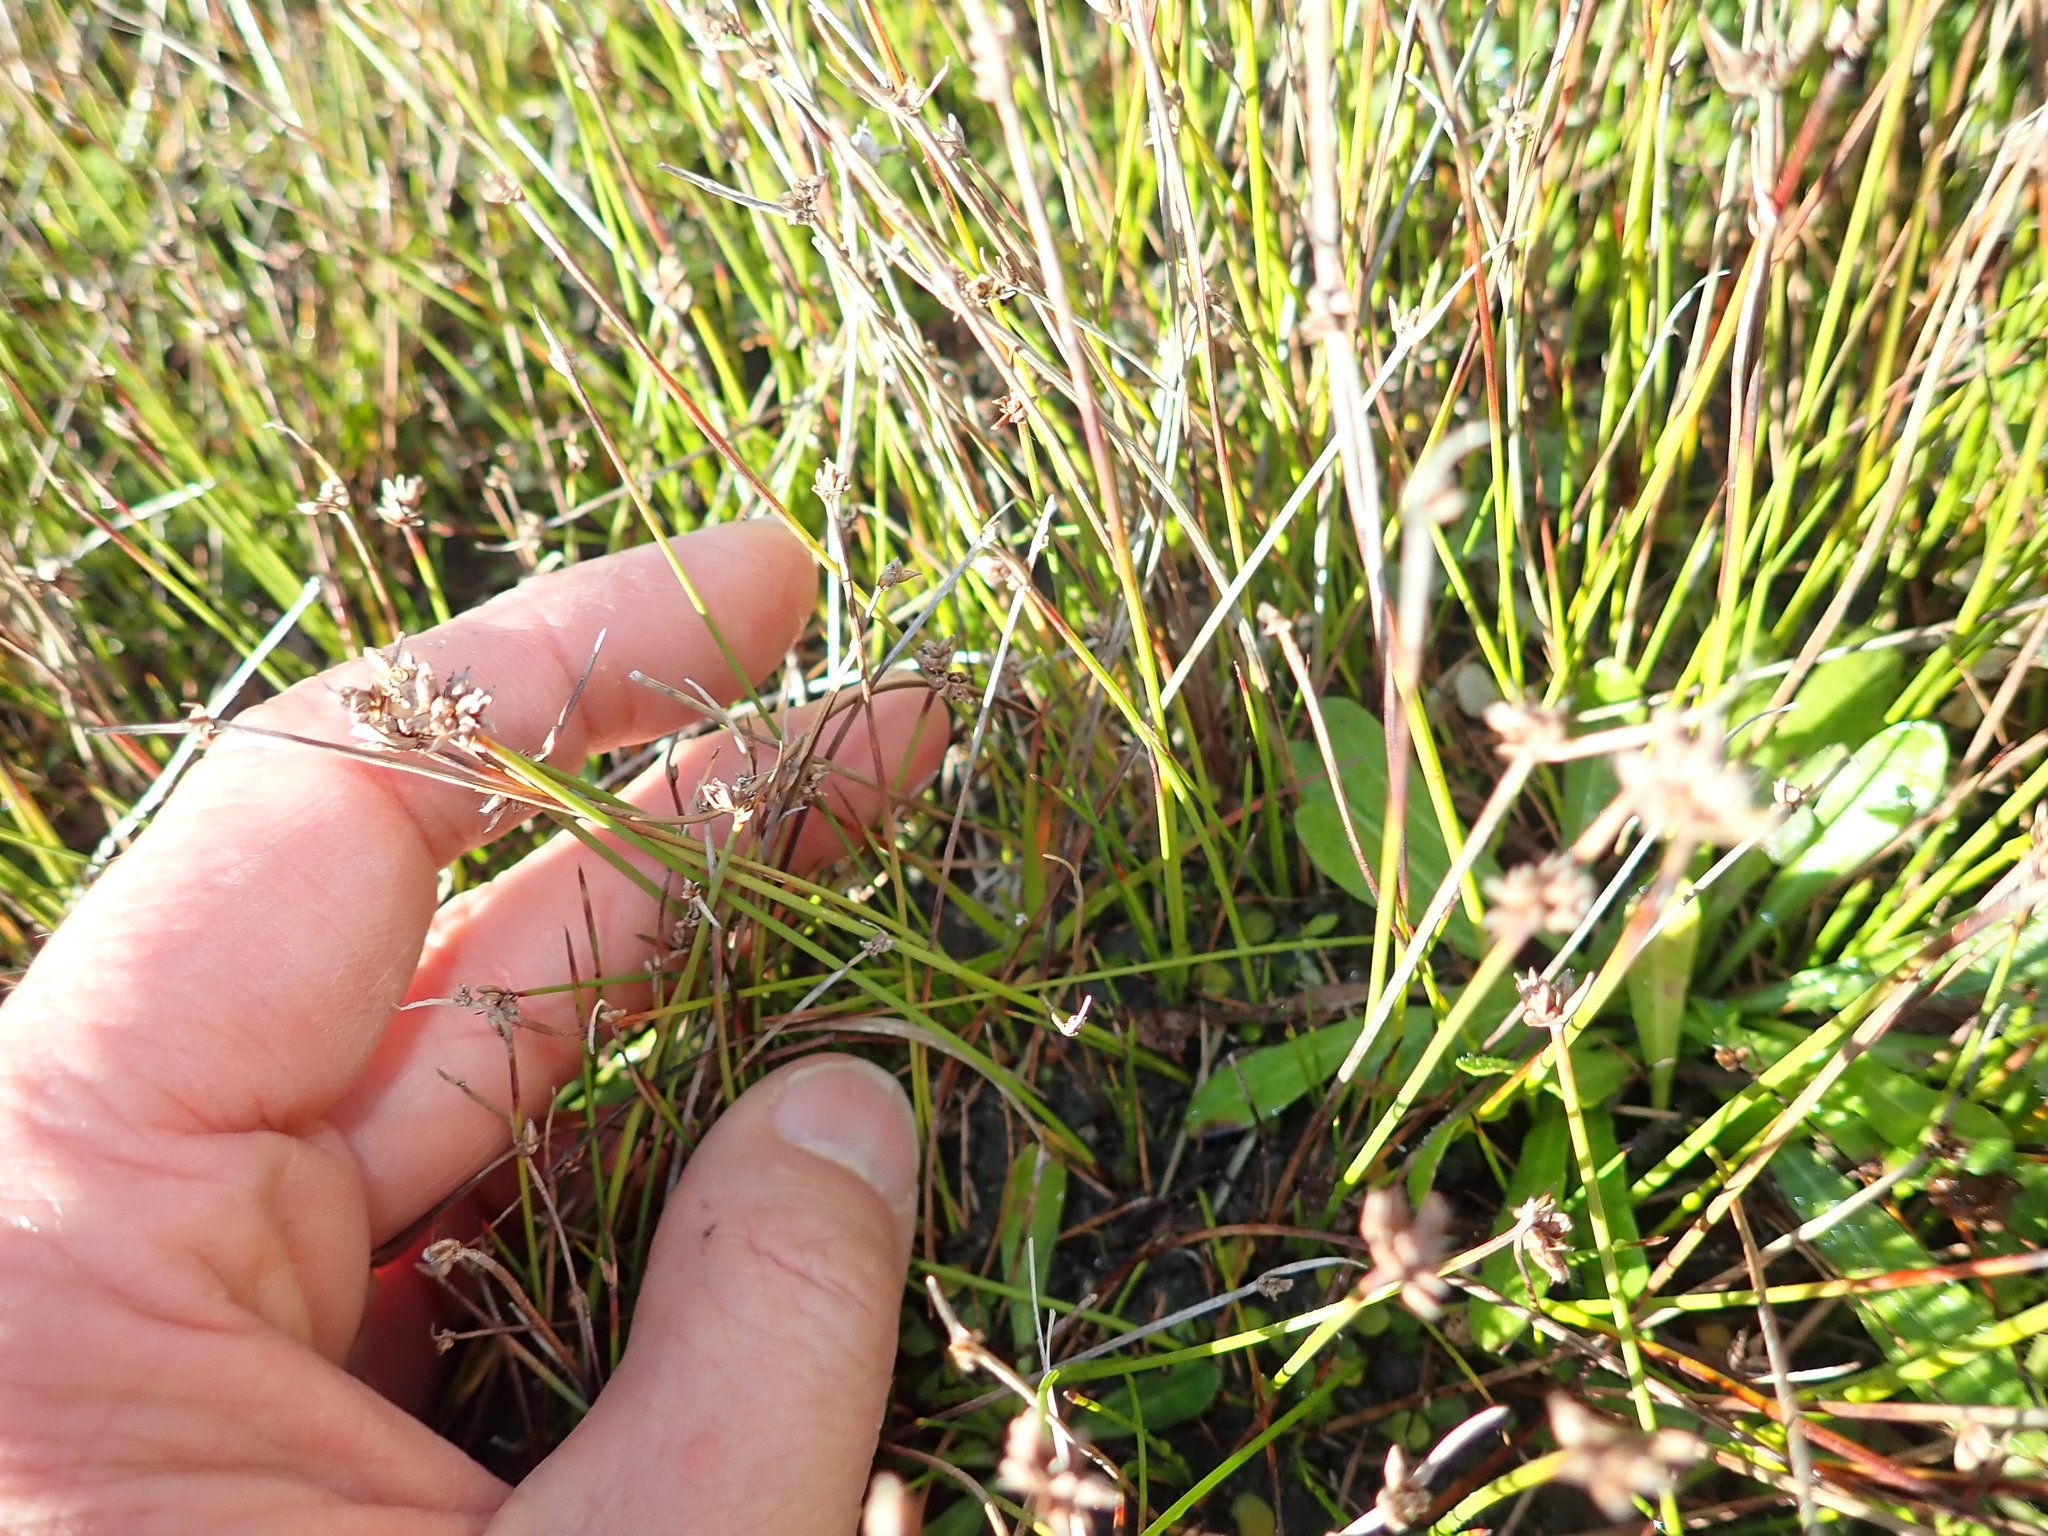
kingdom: Plantae
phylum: Tracheophyta
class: Liliopsida
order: Poales
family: Cyperaceae
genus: Schoenus
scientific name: Schoenus nitens
